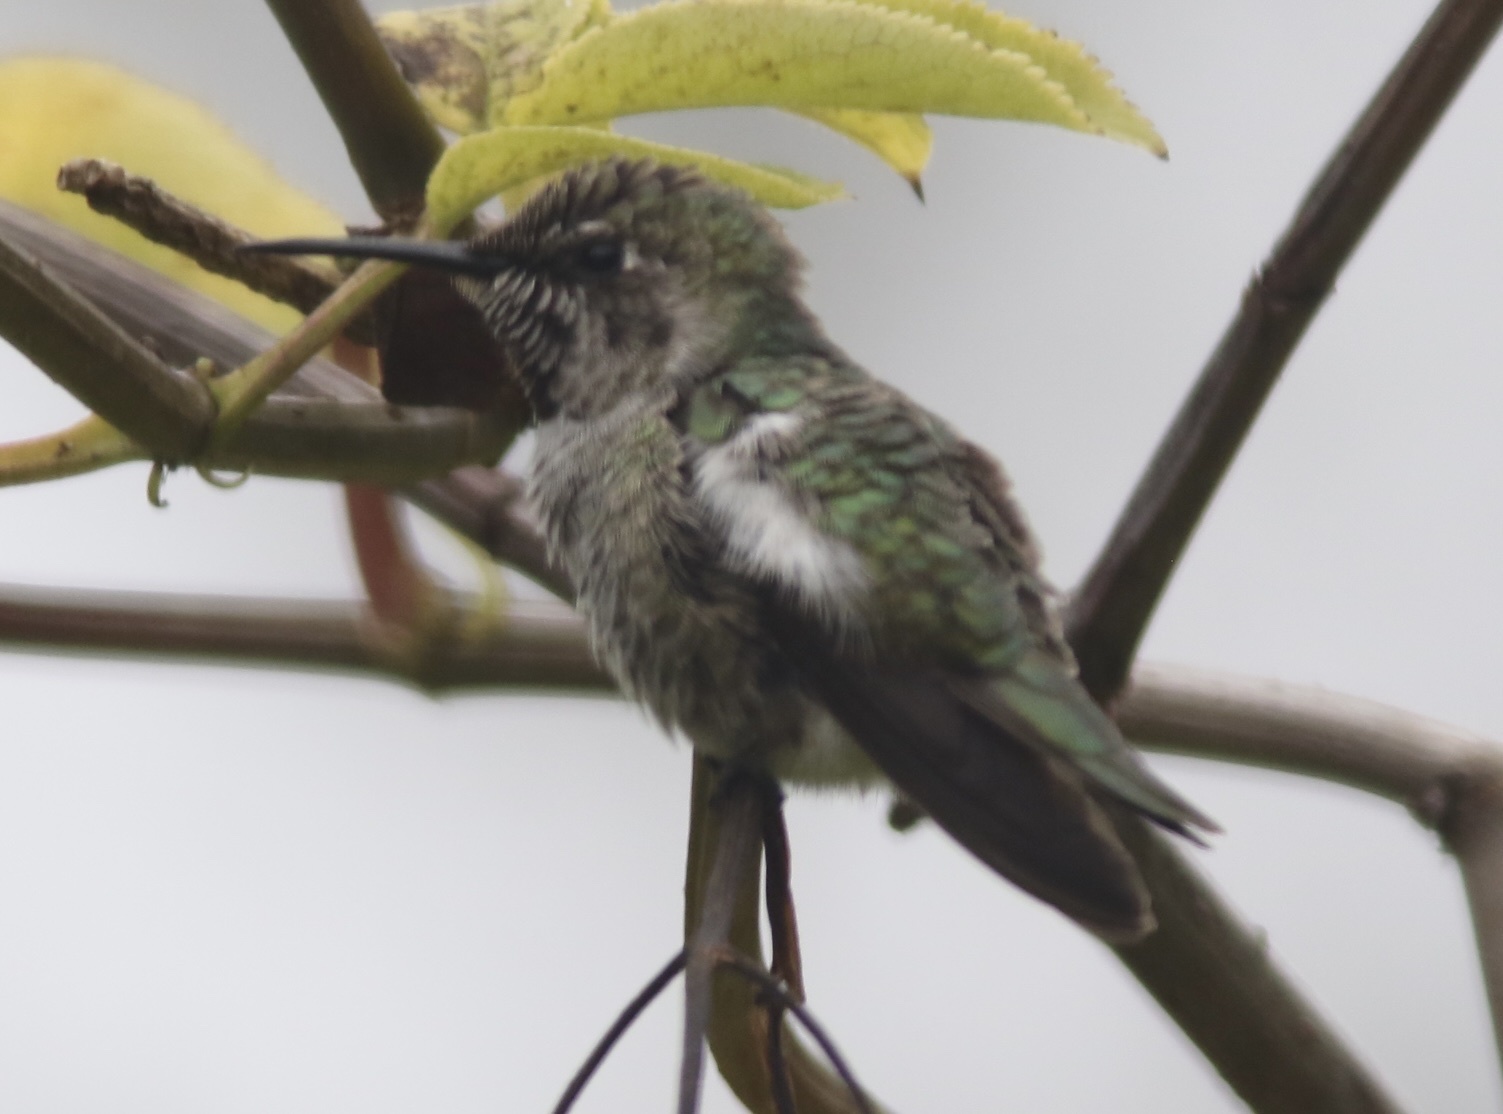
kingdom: Animalia
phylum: Chordata
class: Aves
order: Apodiformes
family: Trochilidae
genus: Calypte
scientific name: Calypte anna
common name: Anna's hummingbird
